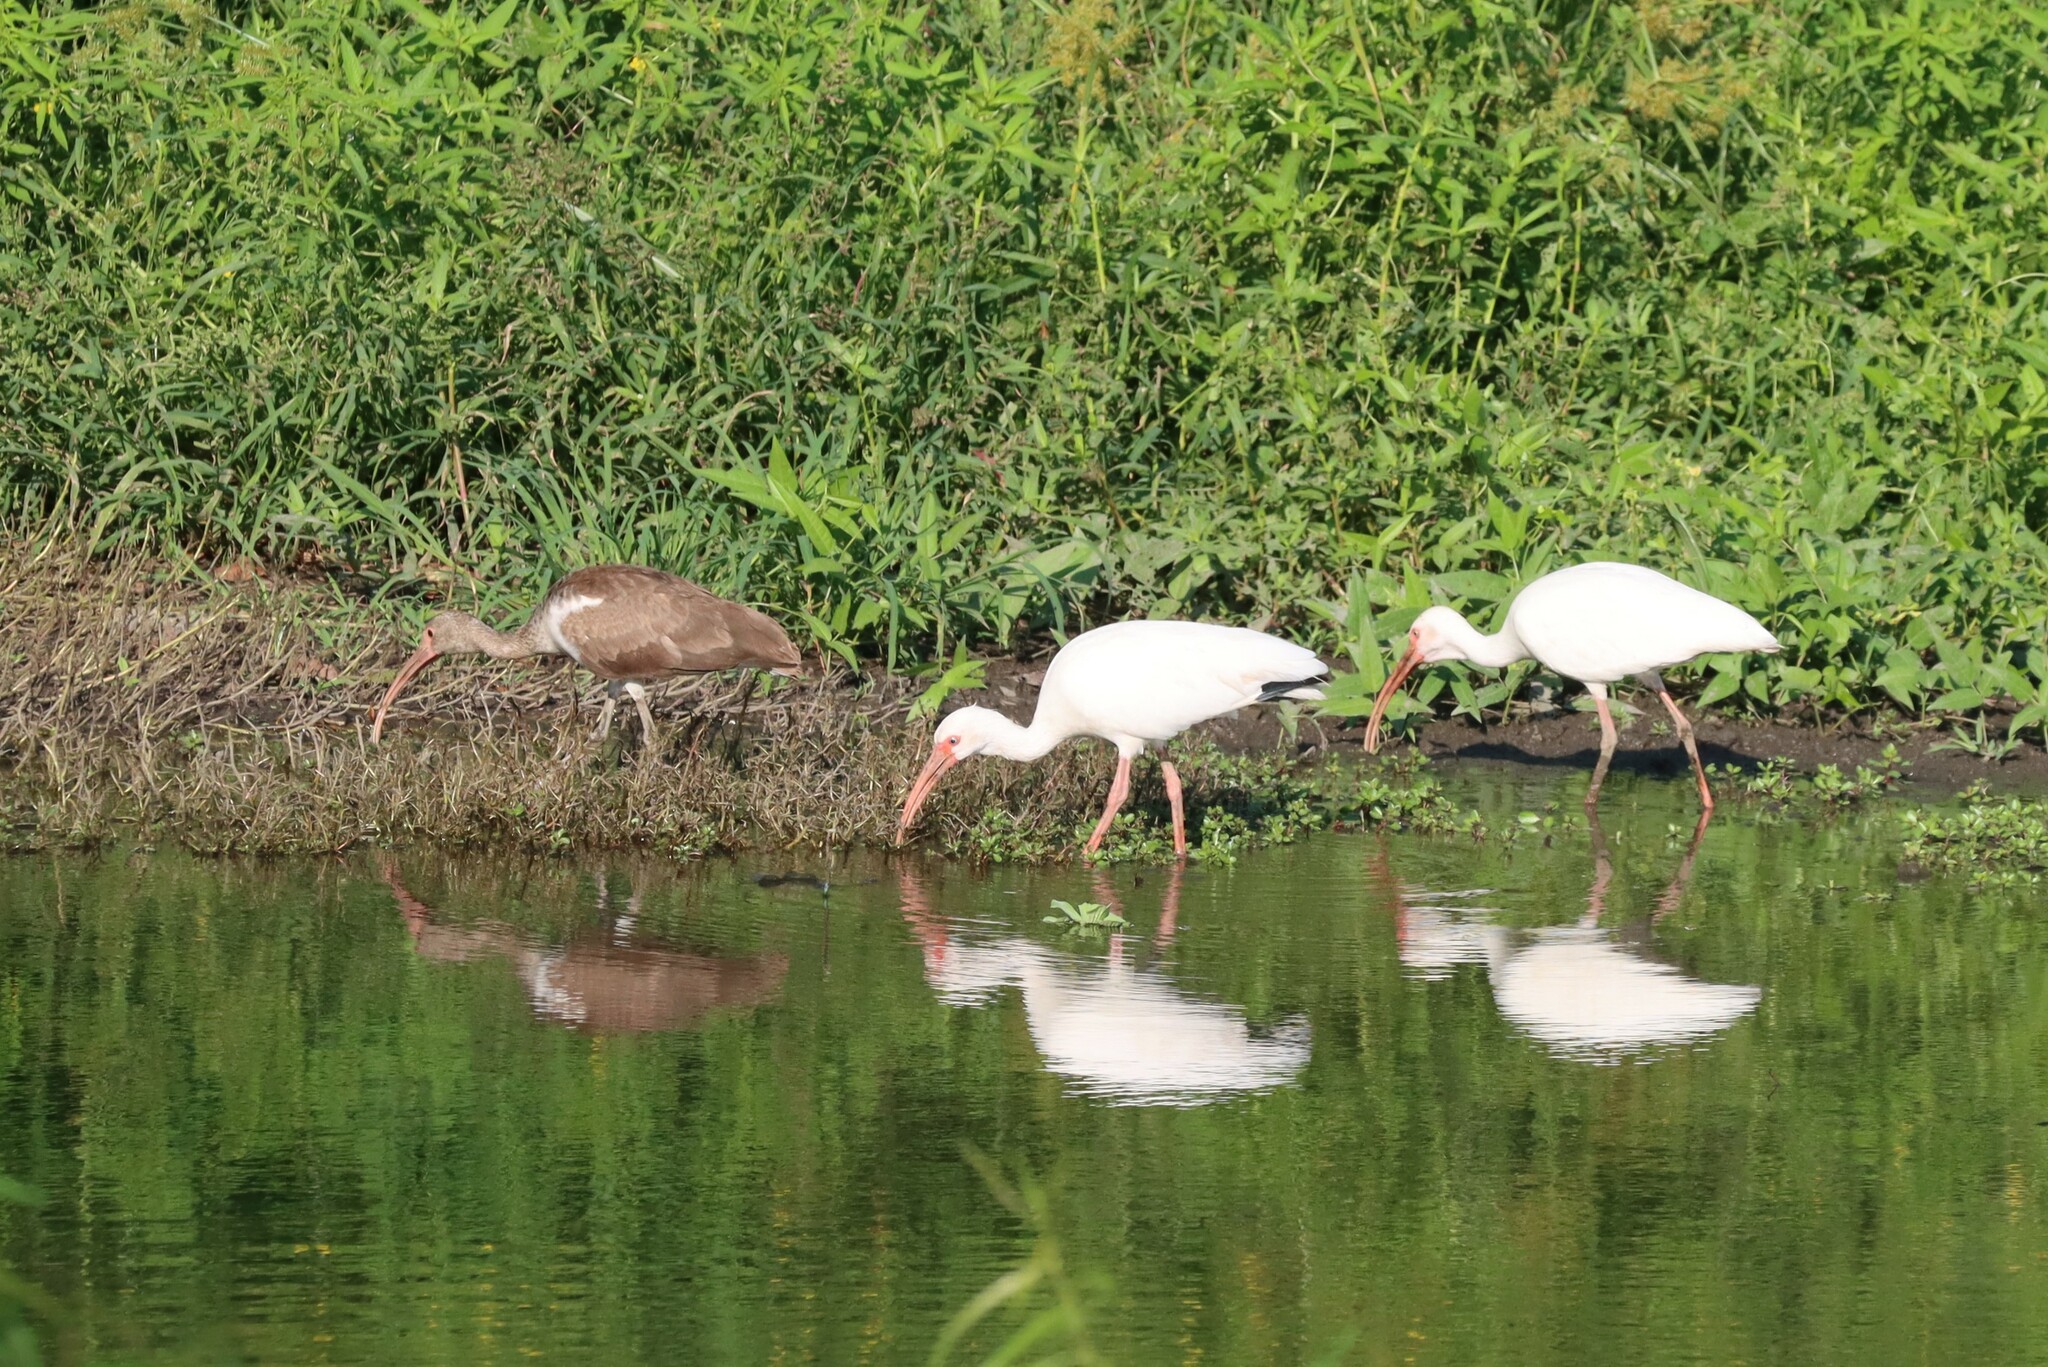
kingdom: Animalia
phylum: Chordata
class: Aves
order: Pelecaniformes
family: Threskiornithidae
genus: Eudocimus
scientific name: Eudocimus albus
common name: White ibis
